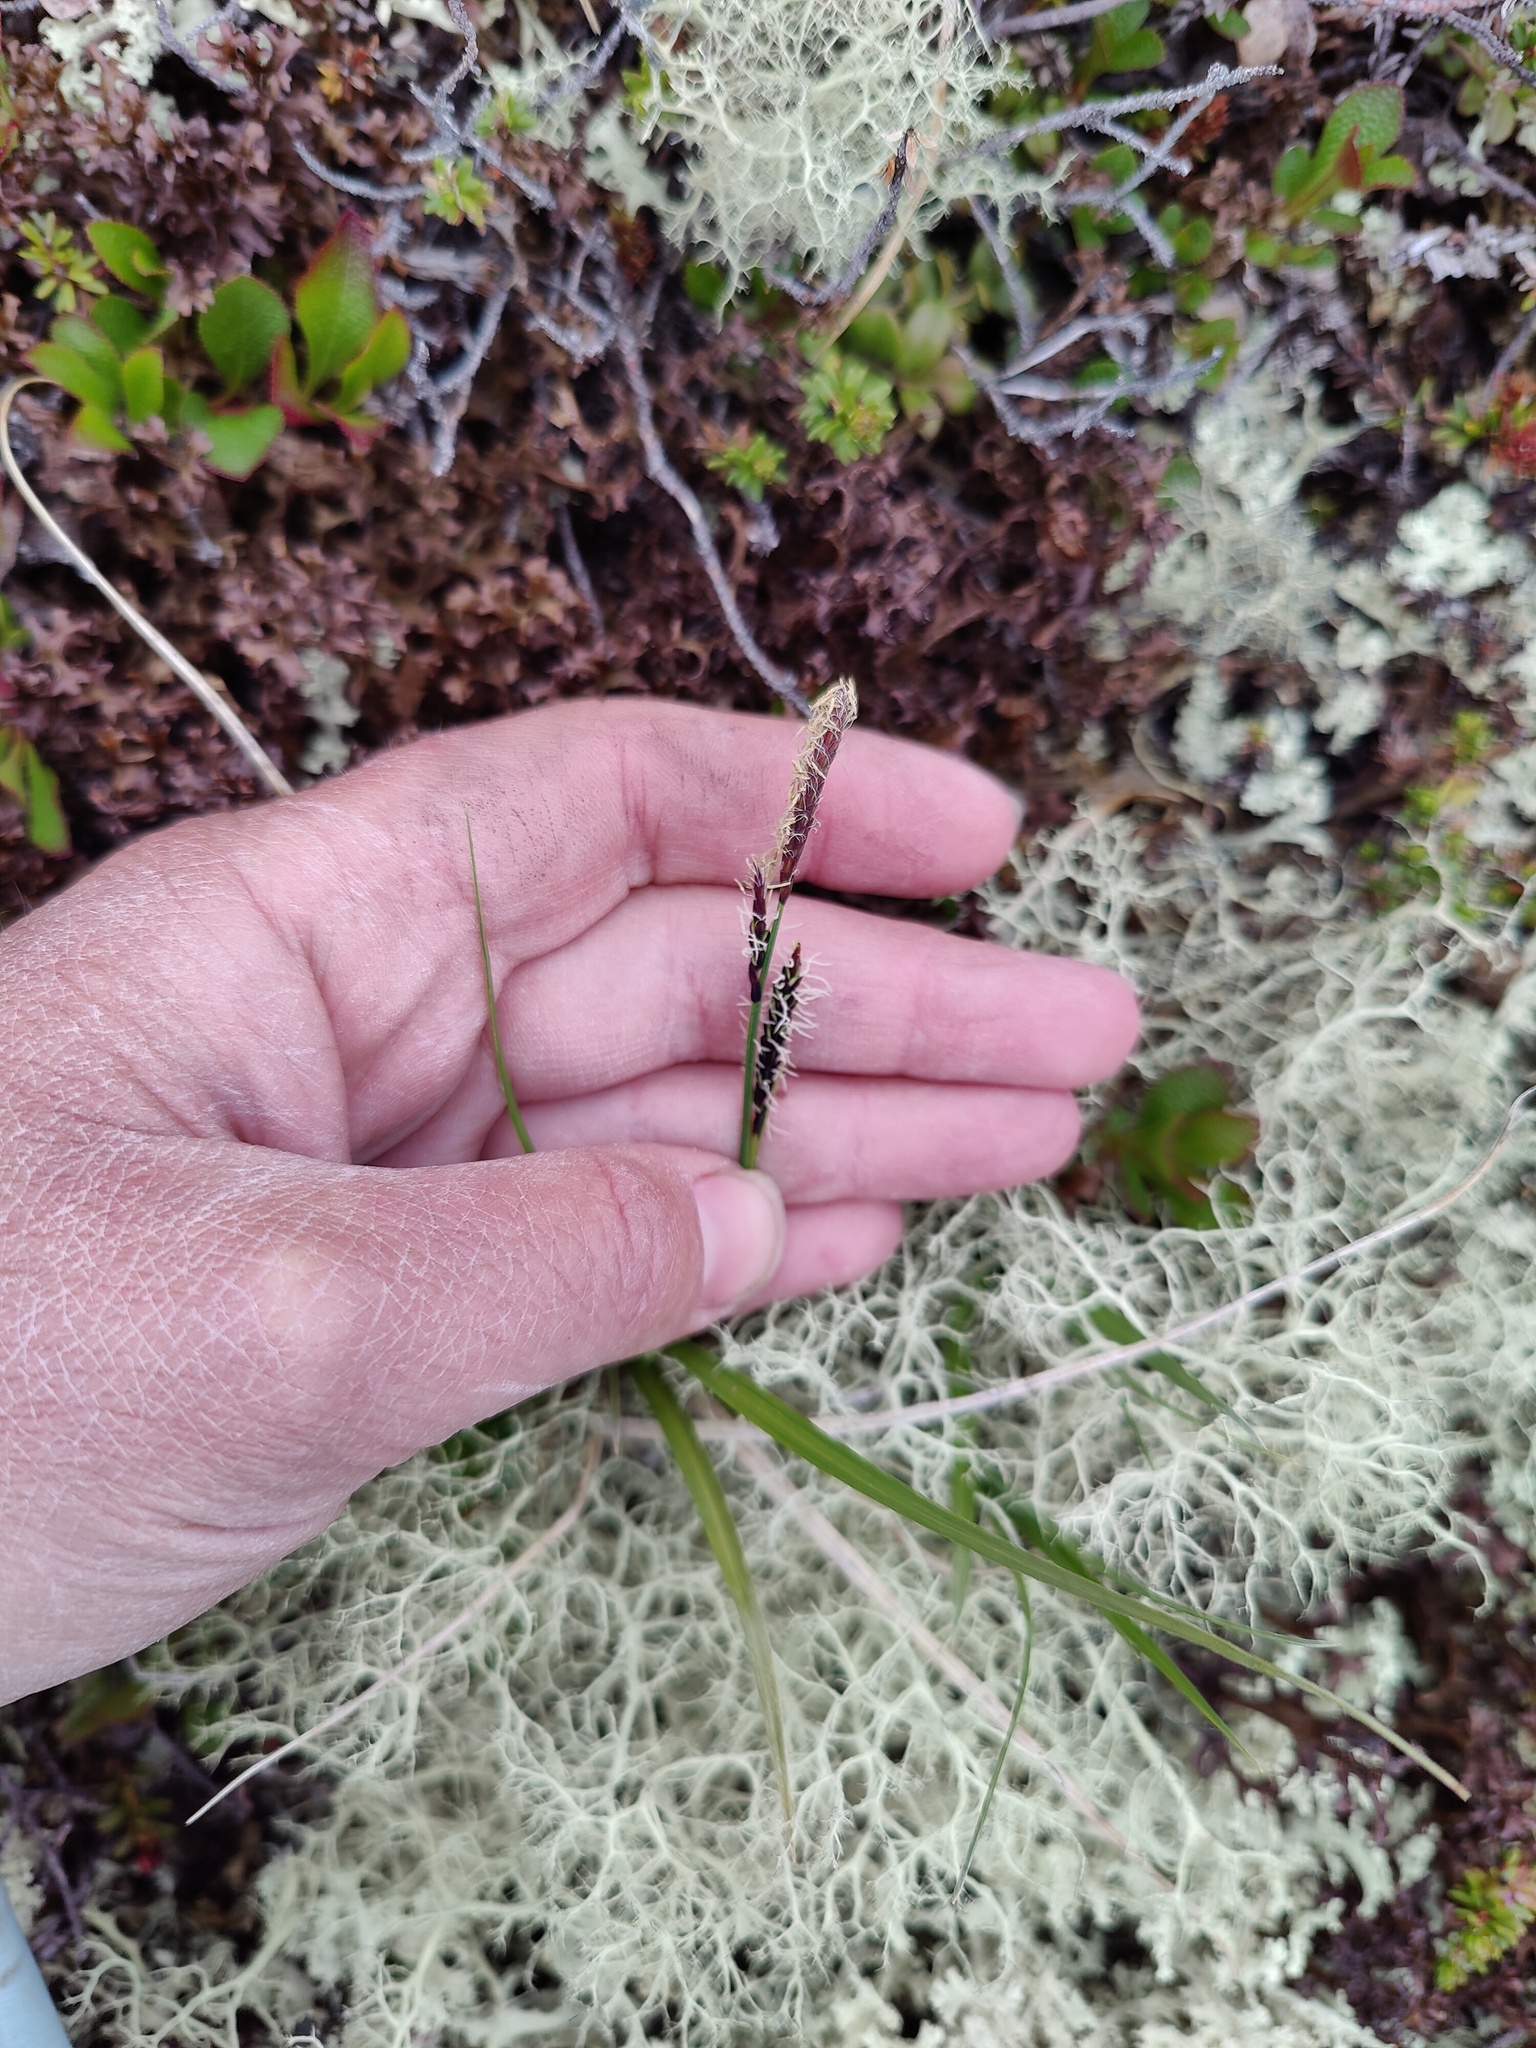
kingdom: Plantae
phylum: Tracheophyta
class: Liliopsida
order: Poales
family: Cyperaceae
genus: Carex
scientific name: Carex bigelowii
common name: Stiff sedge
